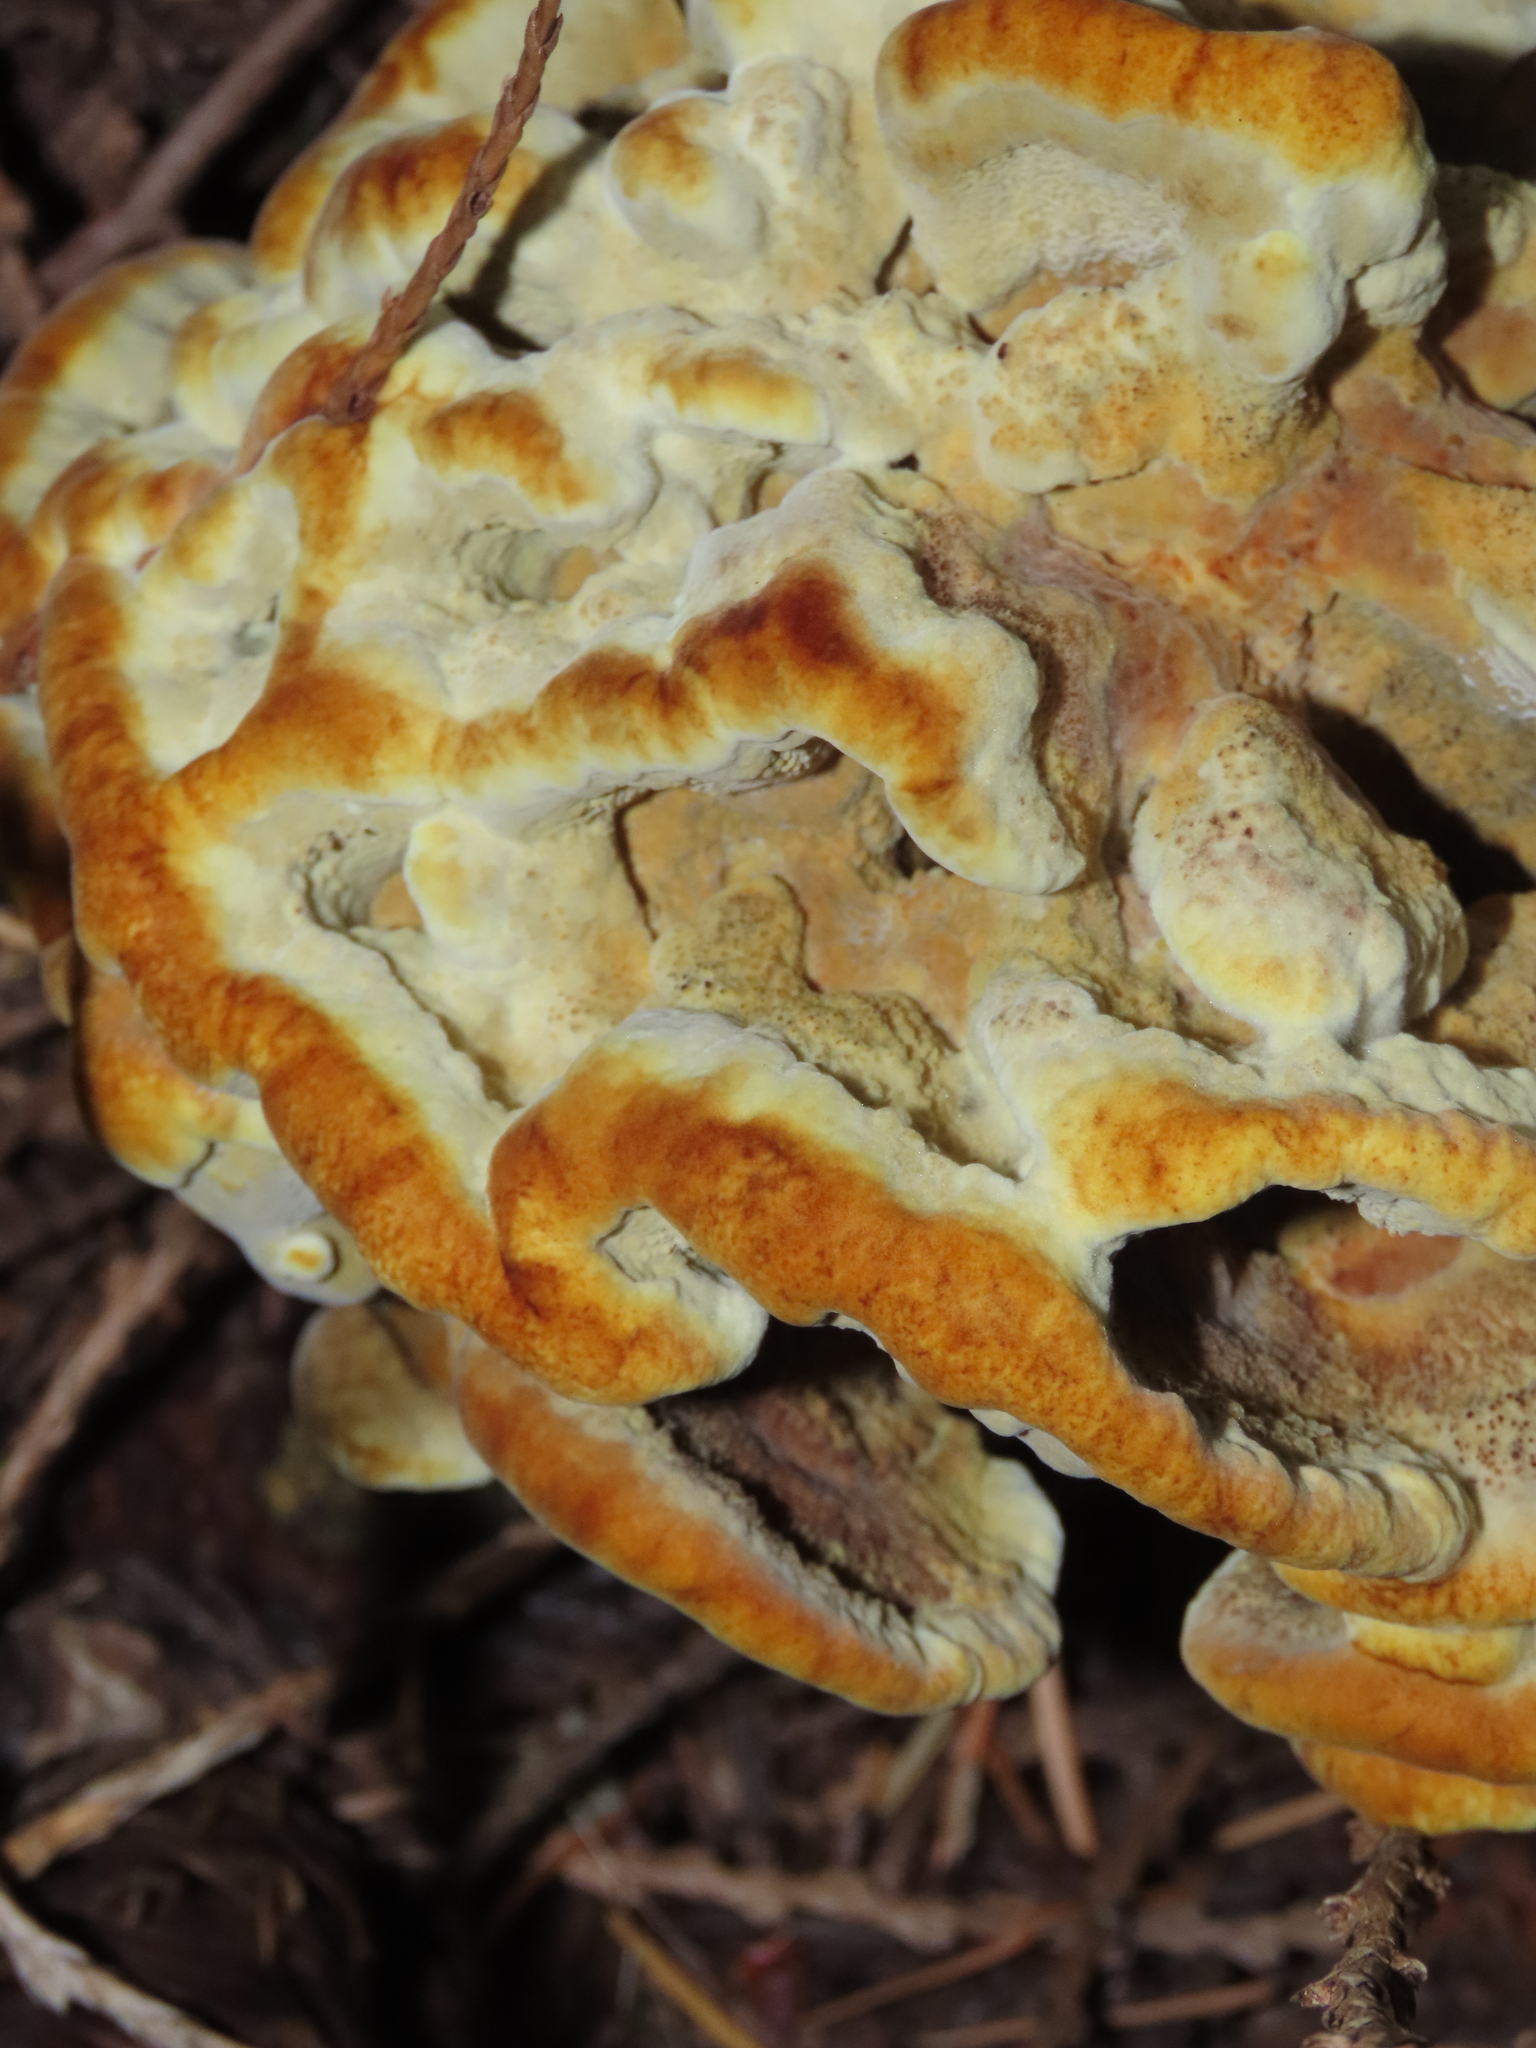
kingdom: Fungi
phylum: Basidiomycota
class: Agaricomycetes
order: Polyporales
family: Laetiporaceae
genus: Phaeolus
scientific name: Phaeolus schweinitzii
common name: Dyer's mazegill
